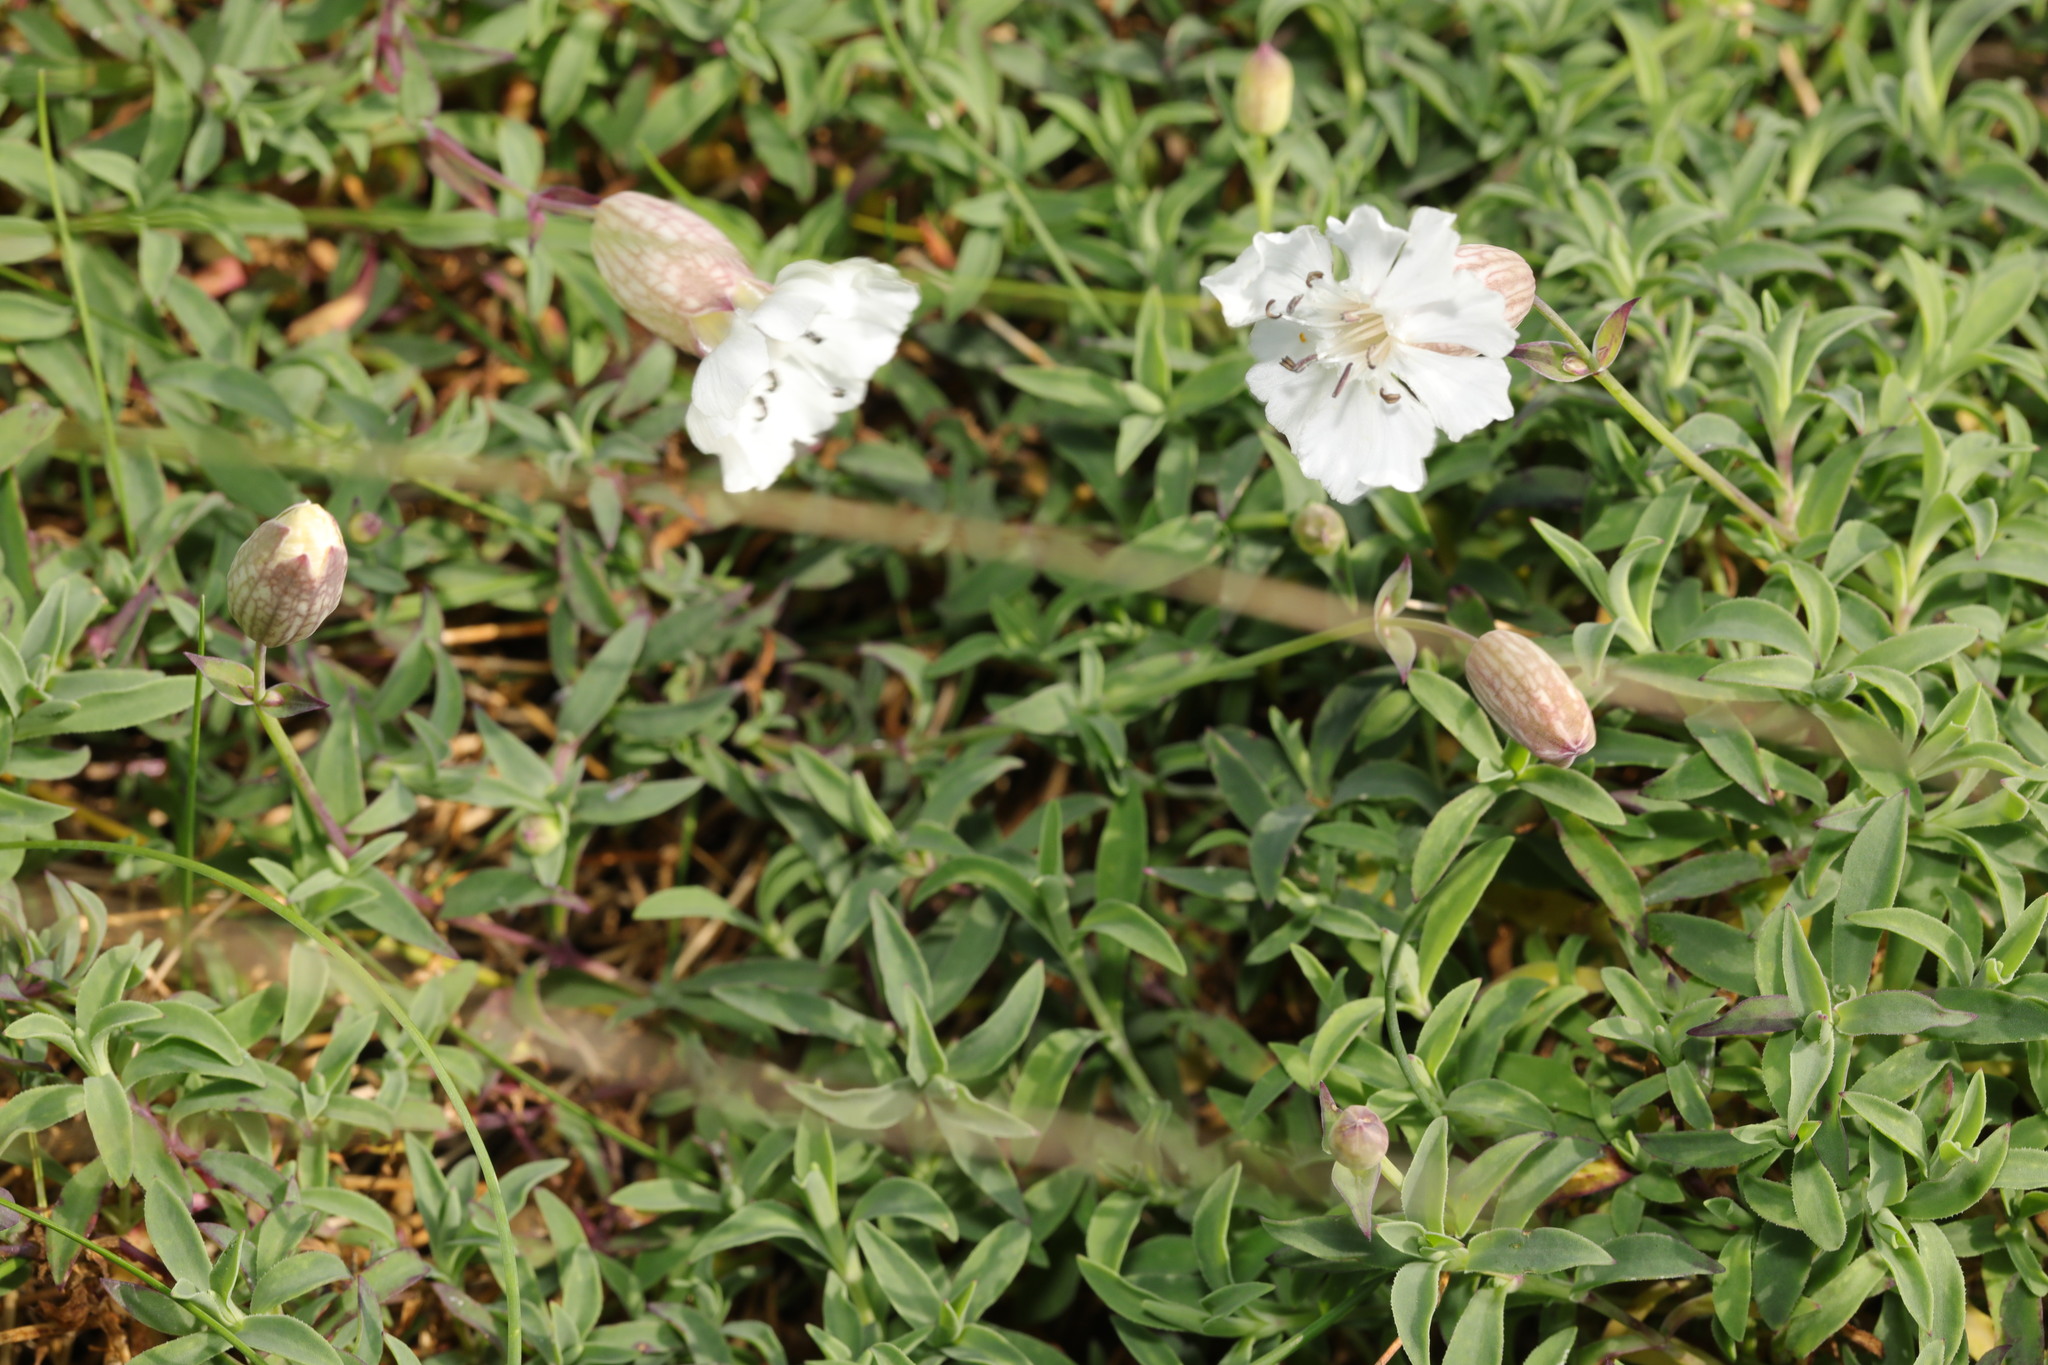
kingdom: Plantae
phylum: Tracheophyta
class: Magnoliopsida
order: Caryophyllales
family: Caryophyllaceae
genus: Silene
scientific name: Silene uniflora
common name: Sea campion
